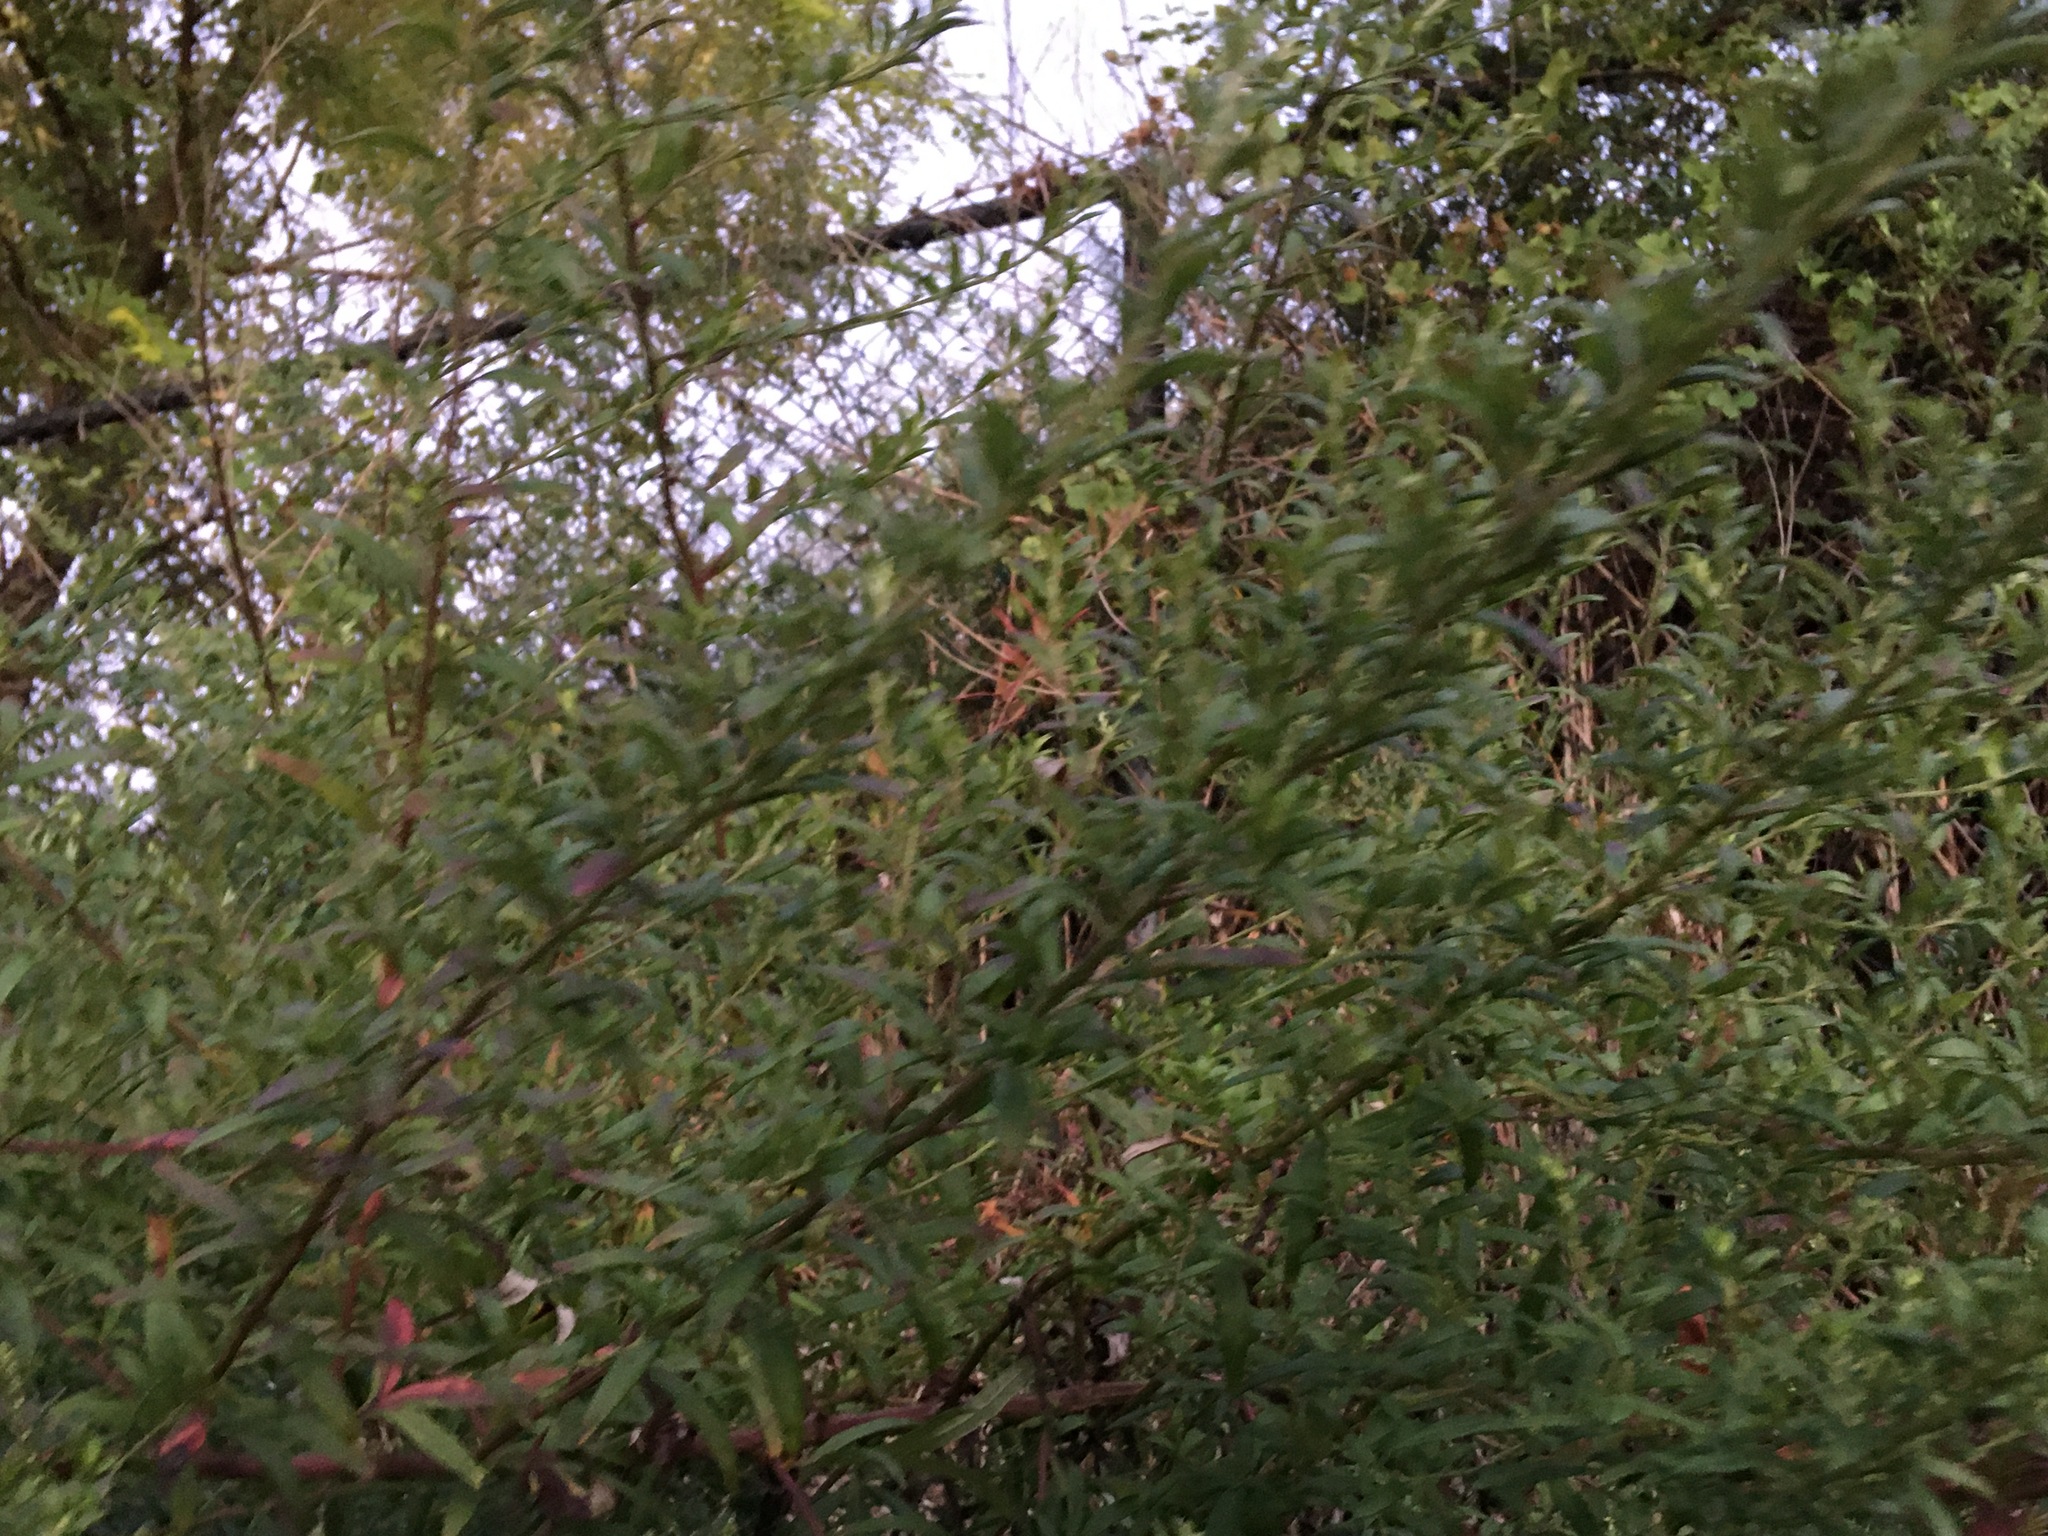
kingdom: Plantae
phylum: Tracheophyta
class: Magnoliopsida
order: Asterales
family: Asteraceae
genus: Artemisia
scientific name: Artemisia vulgaris
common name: Mugwort
